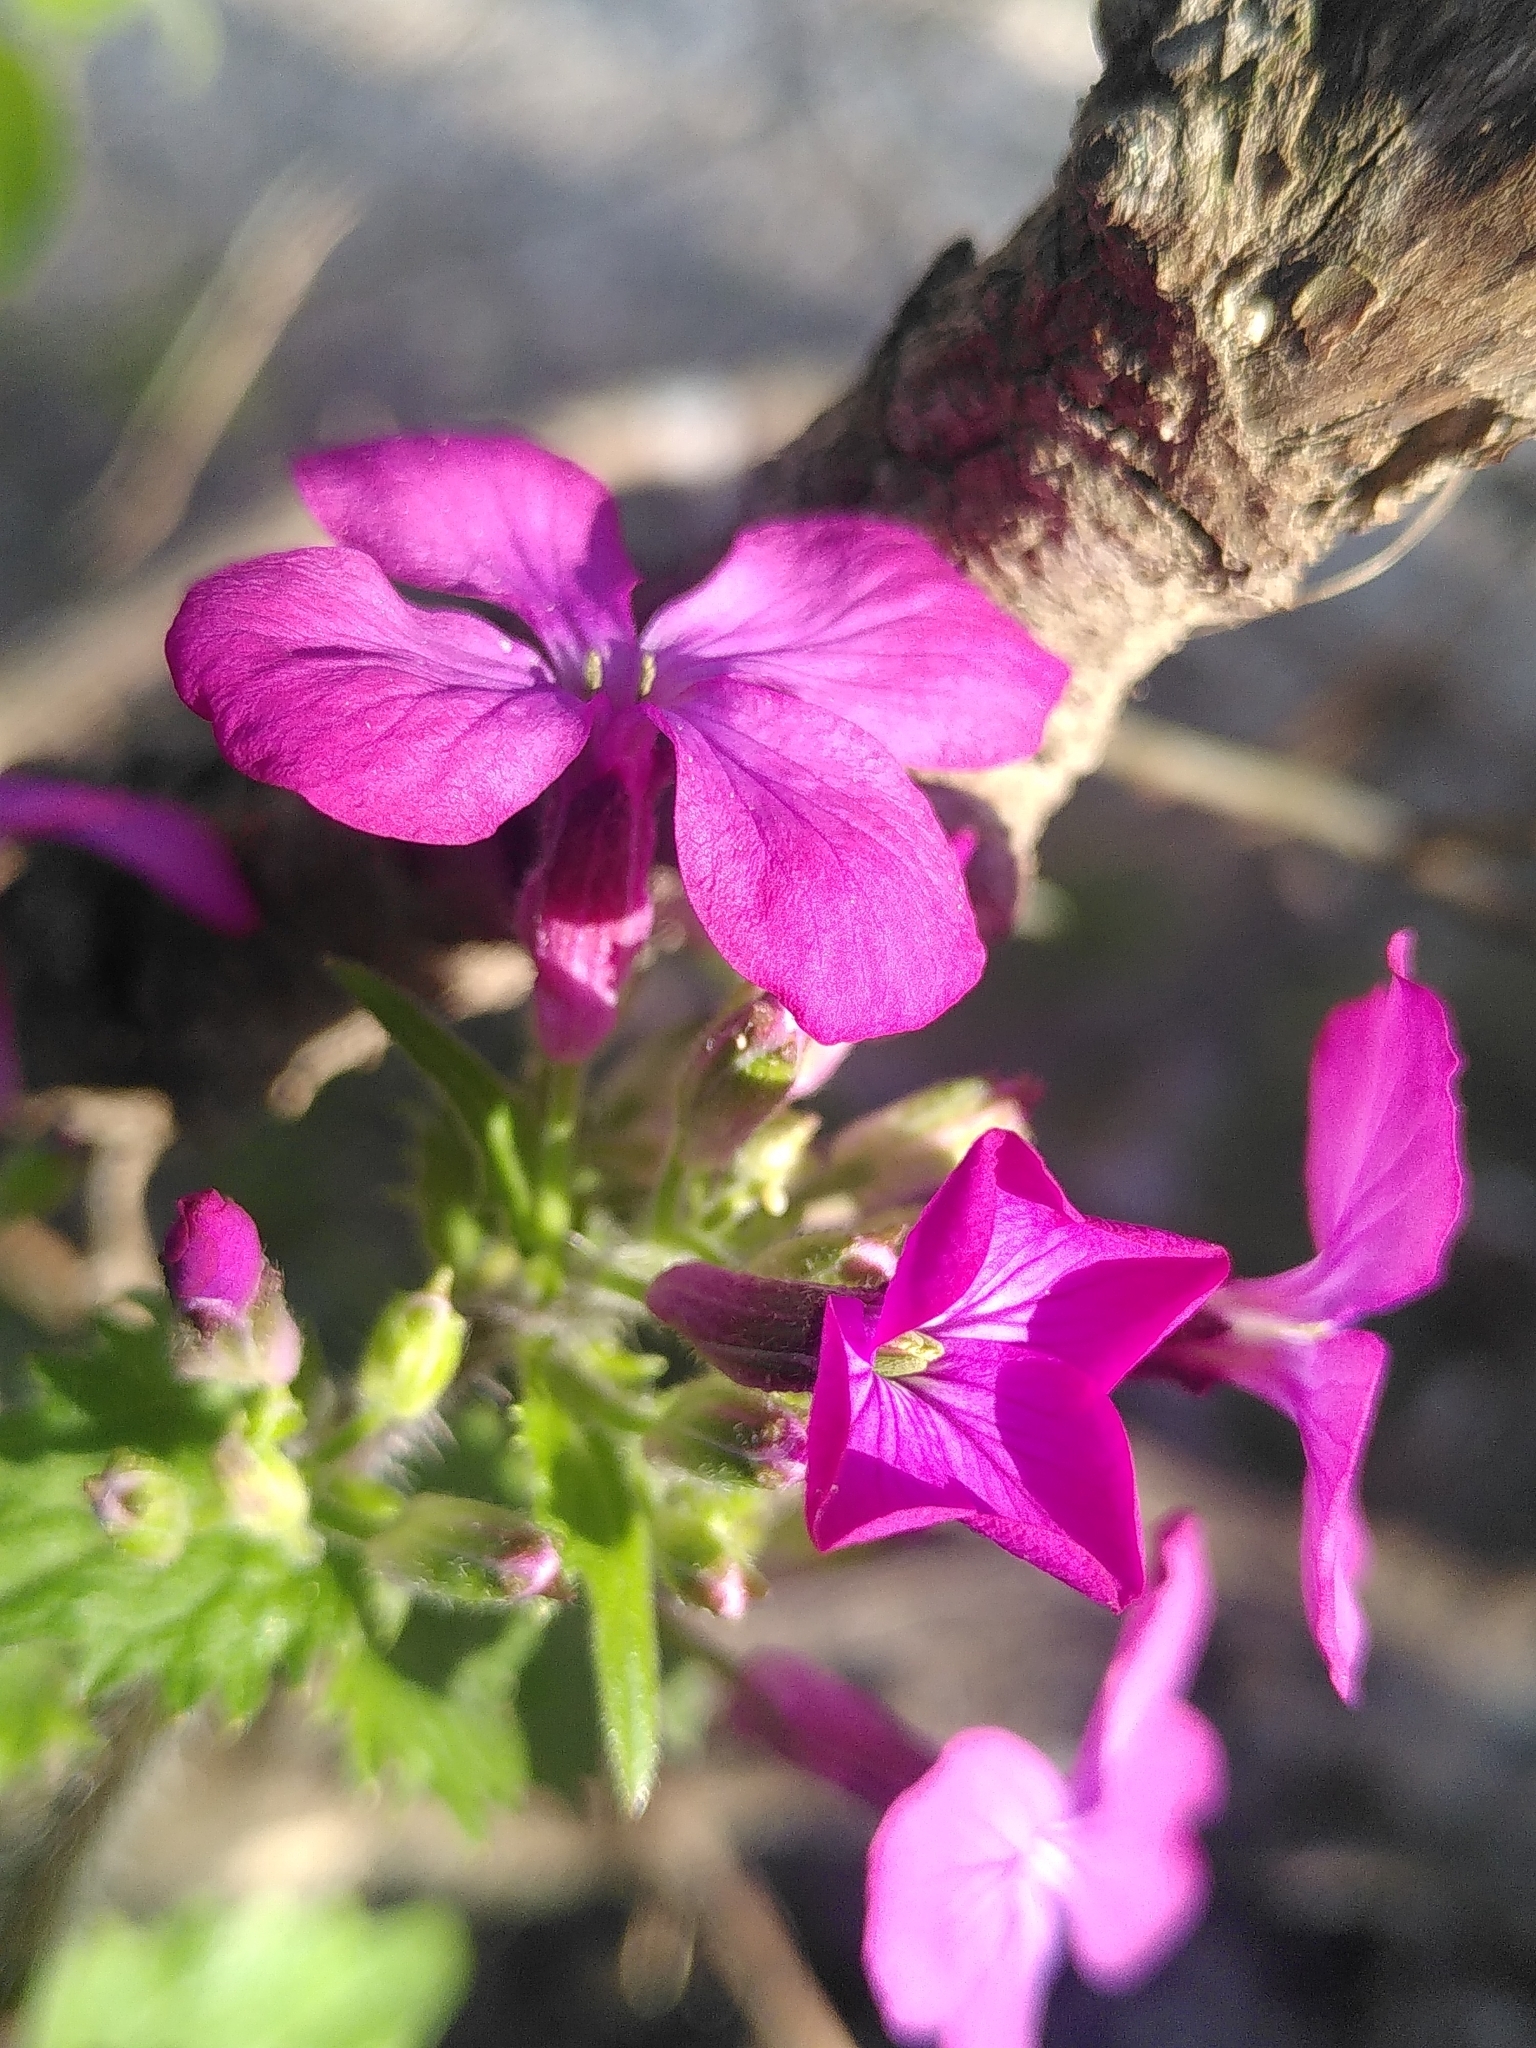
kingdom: Plantae
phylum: Tracheophyta
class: Magnoliopsida
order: Brassicales
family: Brassicaceae
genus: Lunaria
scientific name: Lunaria annua
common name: Honesty
